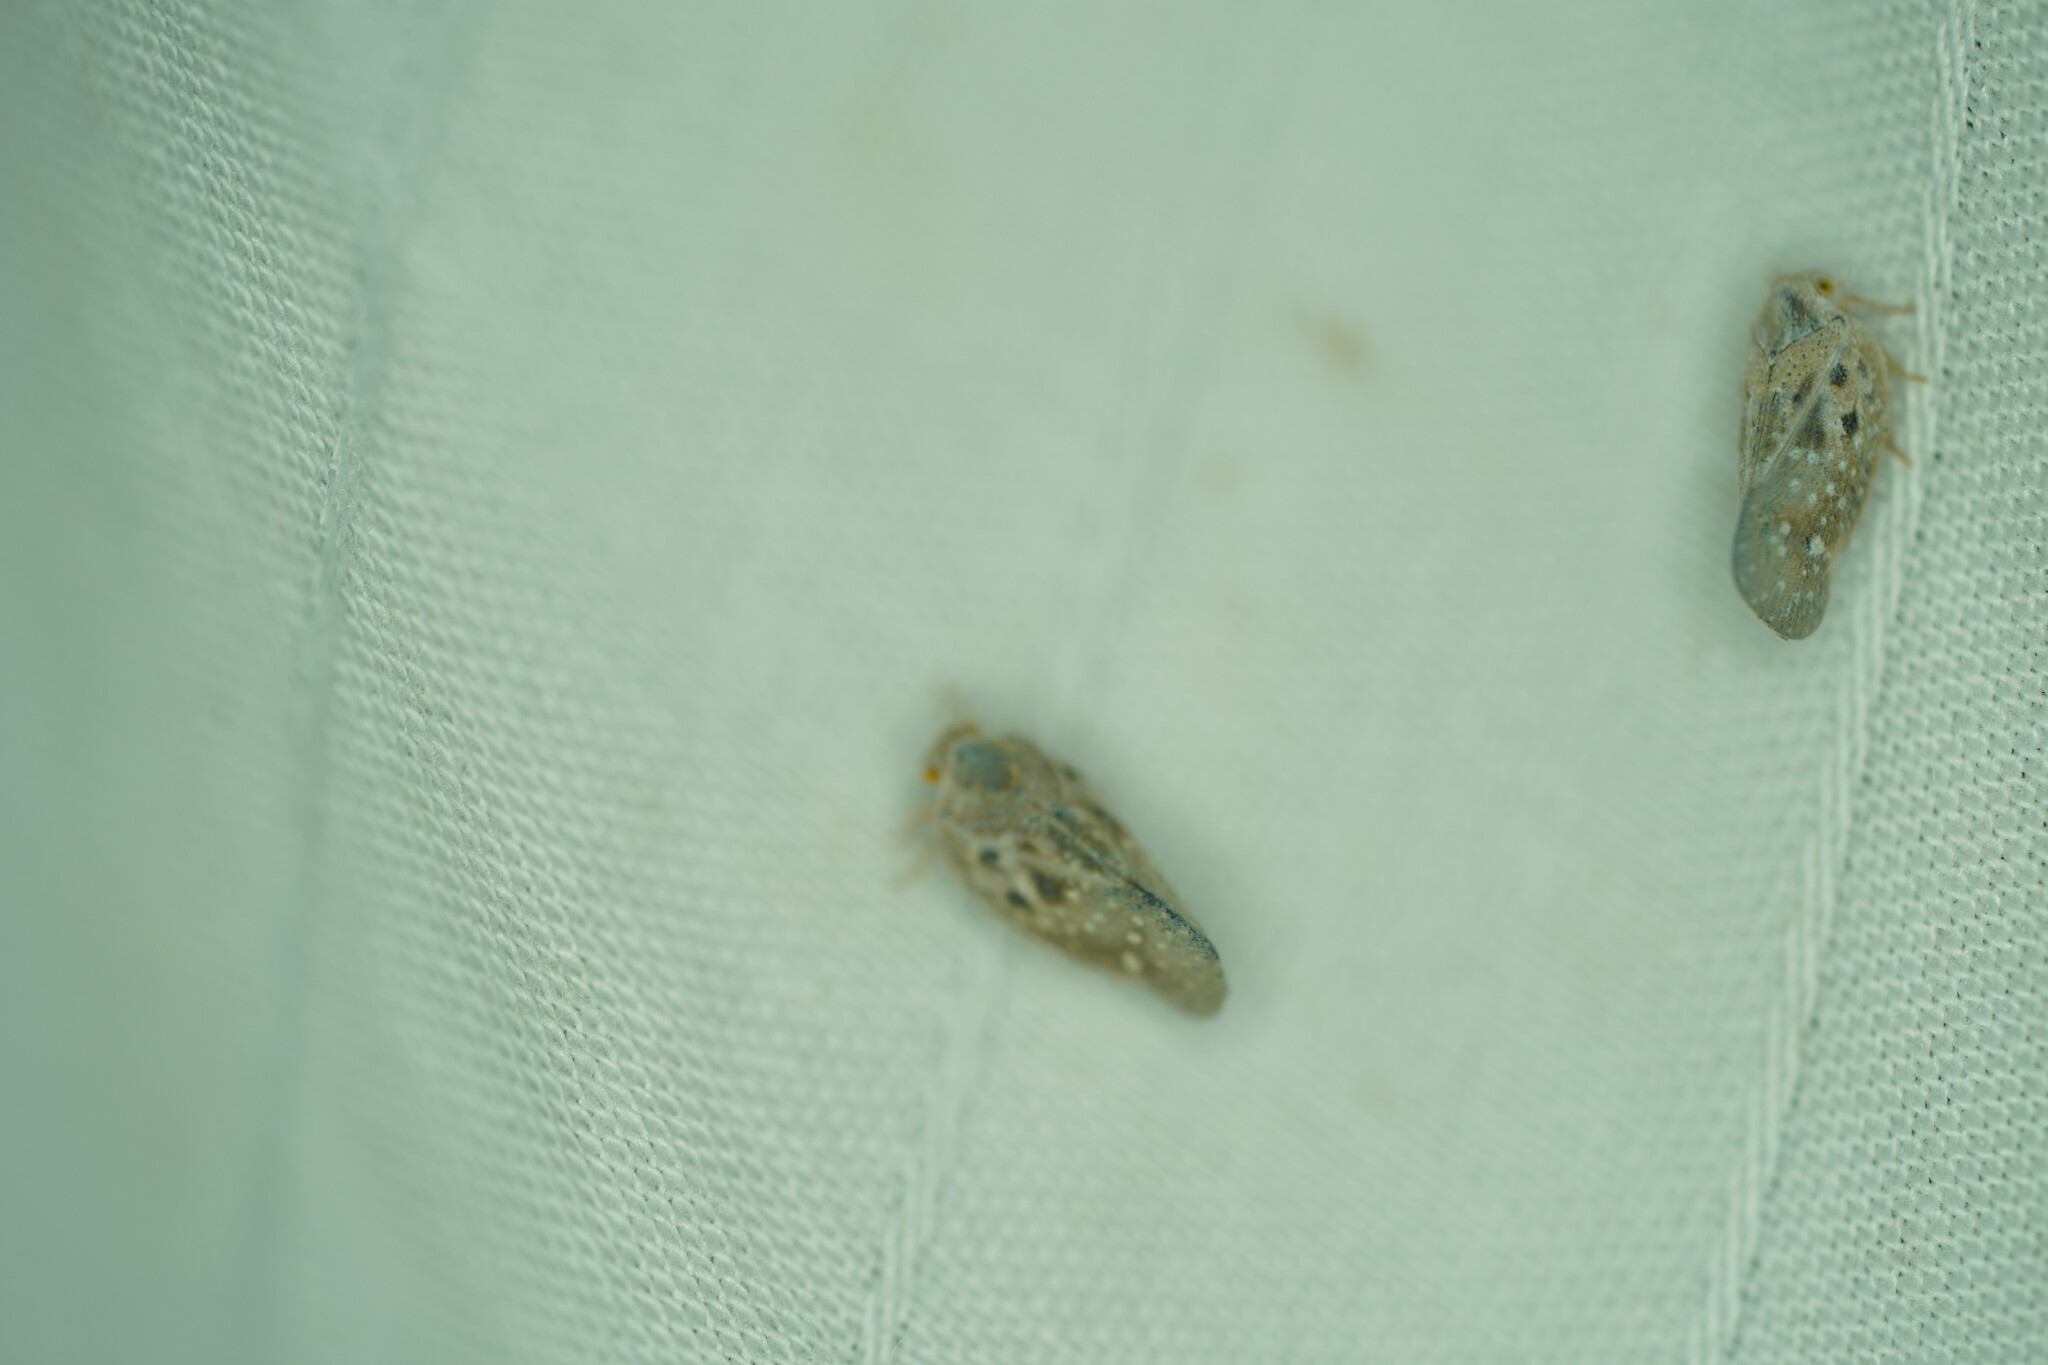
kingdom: Animalia
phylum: Arthropoda
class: Insecta
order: Hemiptera
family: Flatidae
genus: Metcalfa
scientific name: Metcalfa pruinosa
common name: Citrus flatid planthopper
